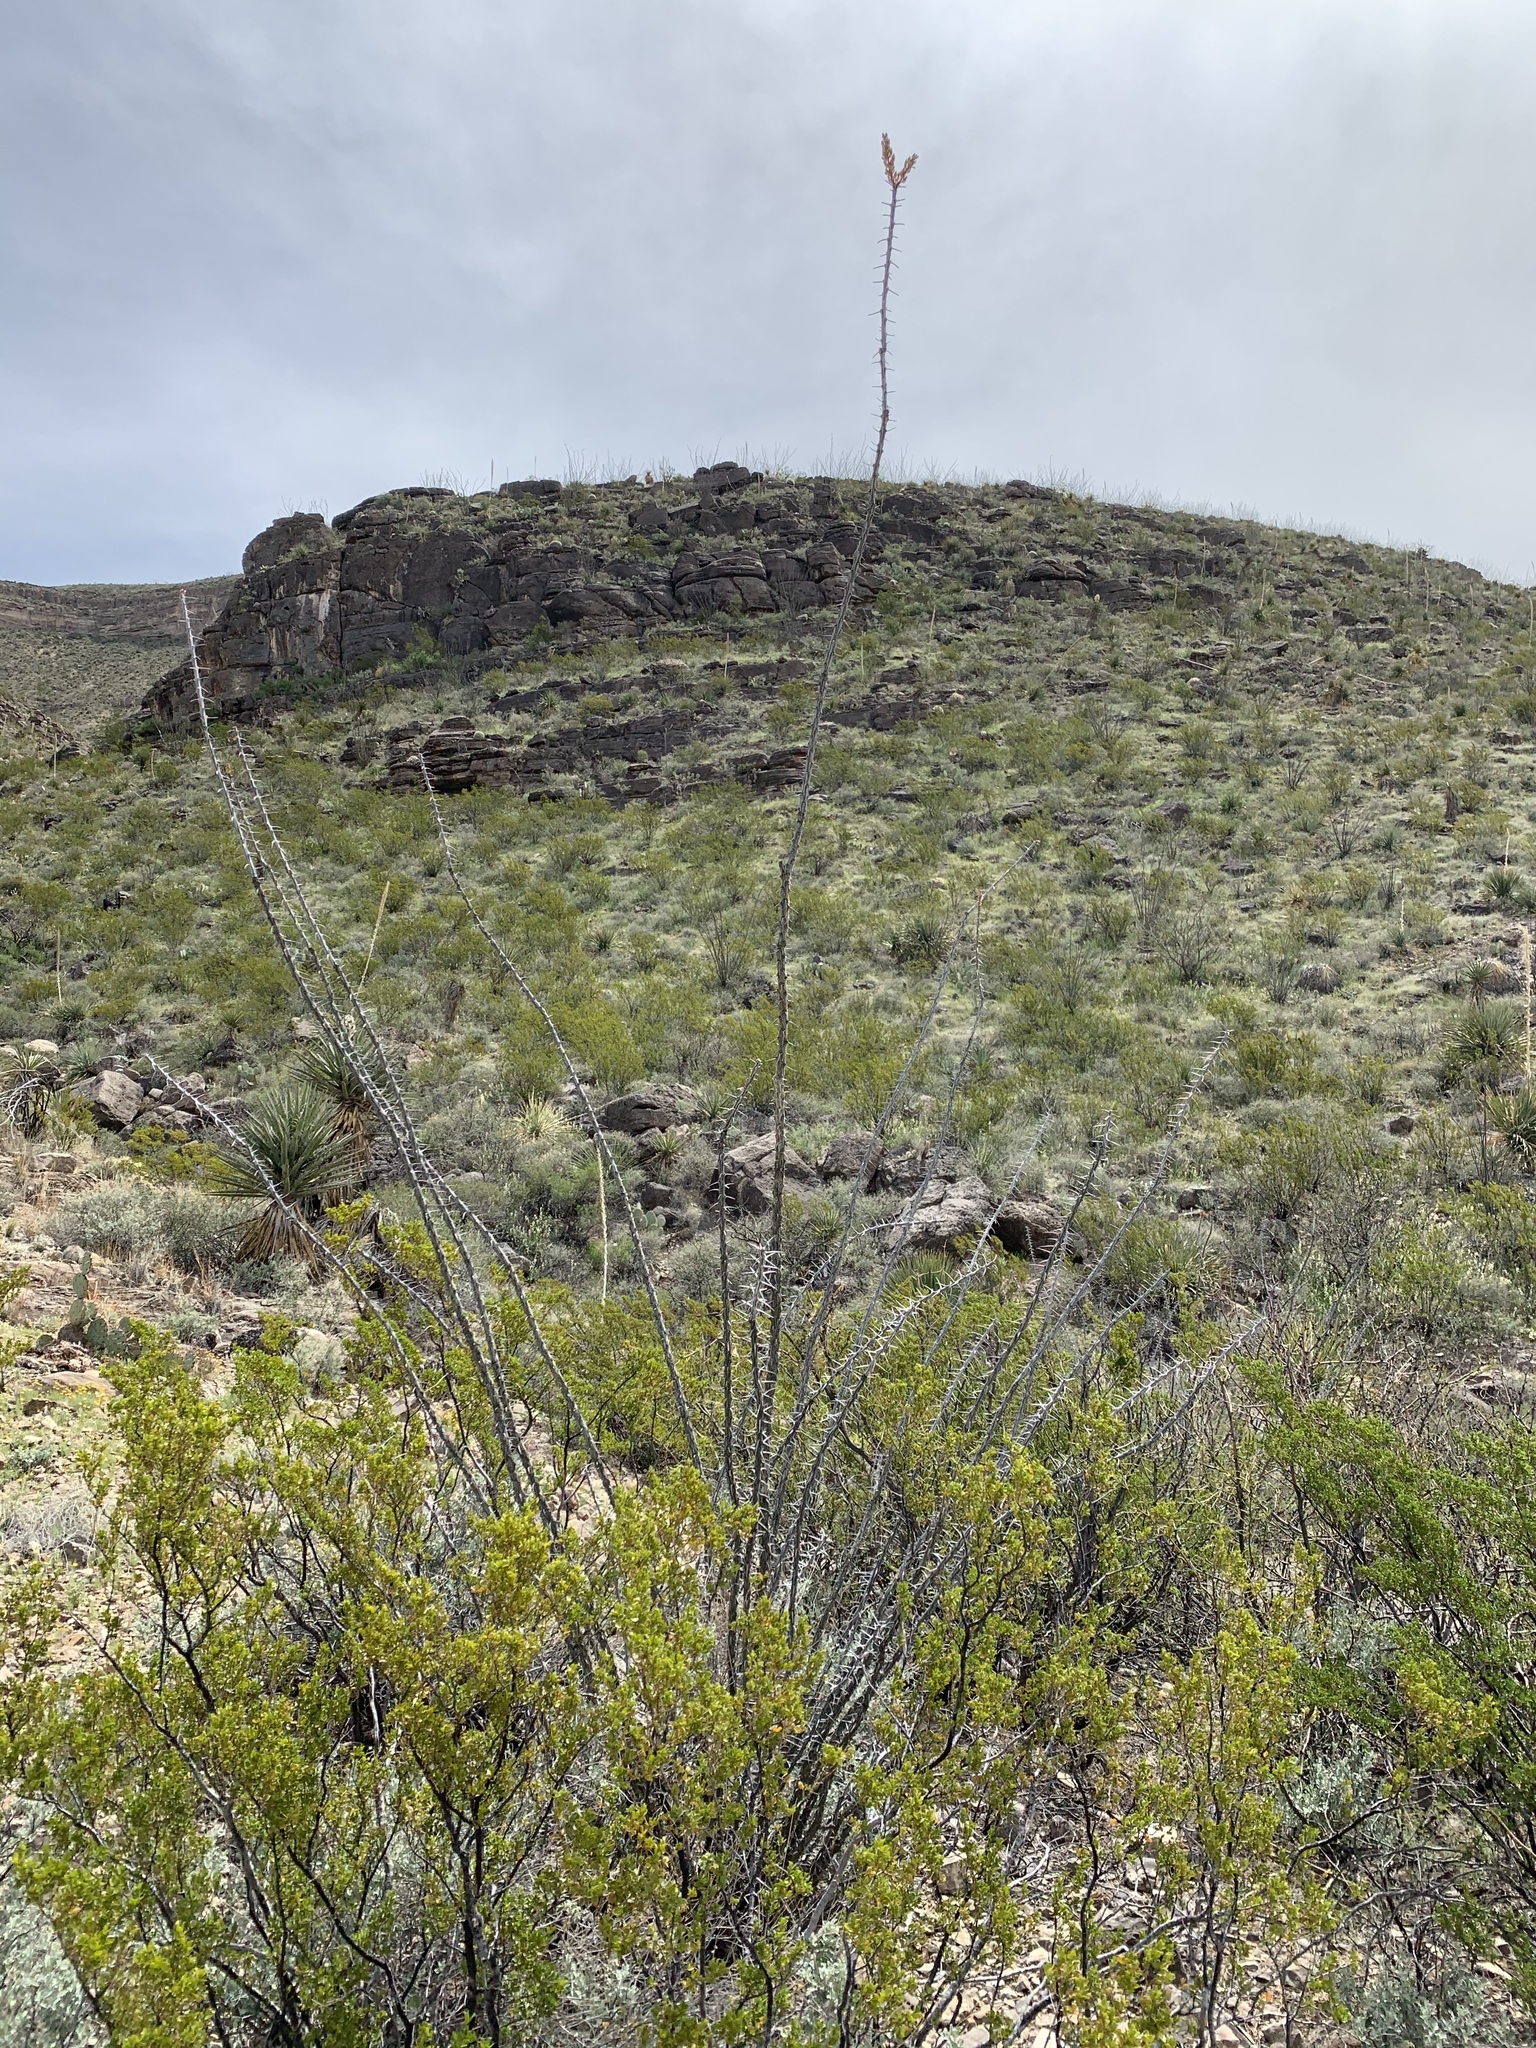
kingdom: Plantae
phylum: Tracheophyta
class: Magnoliopsida
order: Ericales
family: Fouquieriaceae
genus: Fouquieria
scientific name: Fouquieria splendens
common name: Vine-cactus
